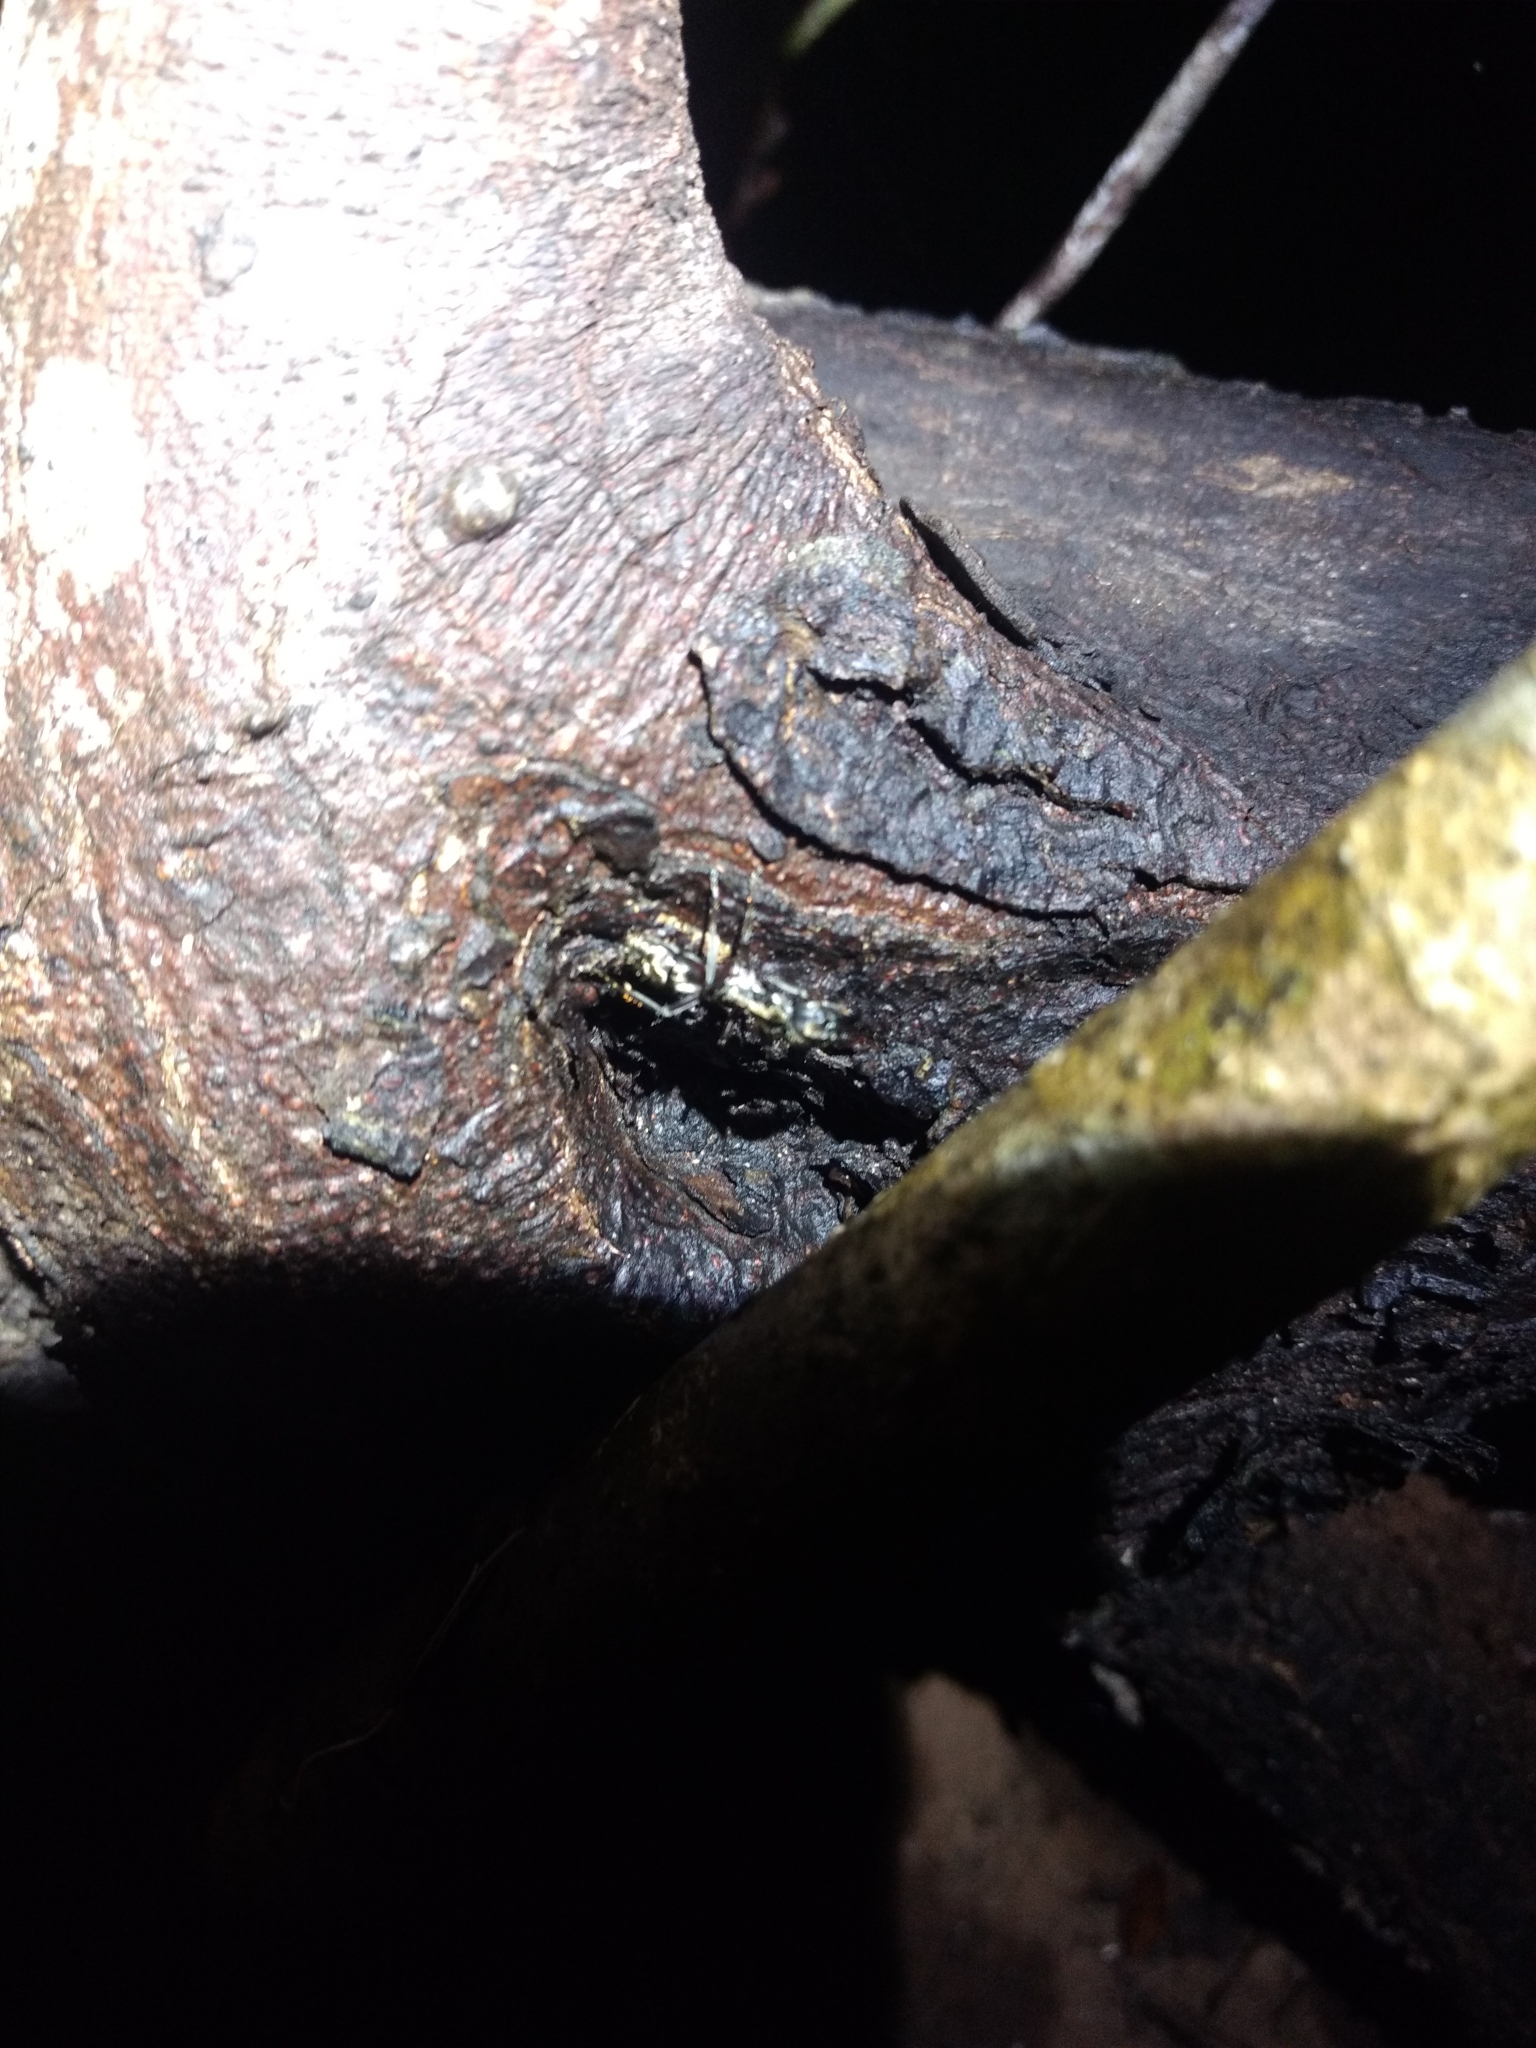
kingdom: Animalia
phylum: Arthropoda
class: Insecta
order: Hymenoptera
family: Formicidae
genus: Pachycondyla
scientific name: Pachycondyla villosa
